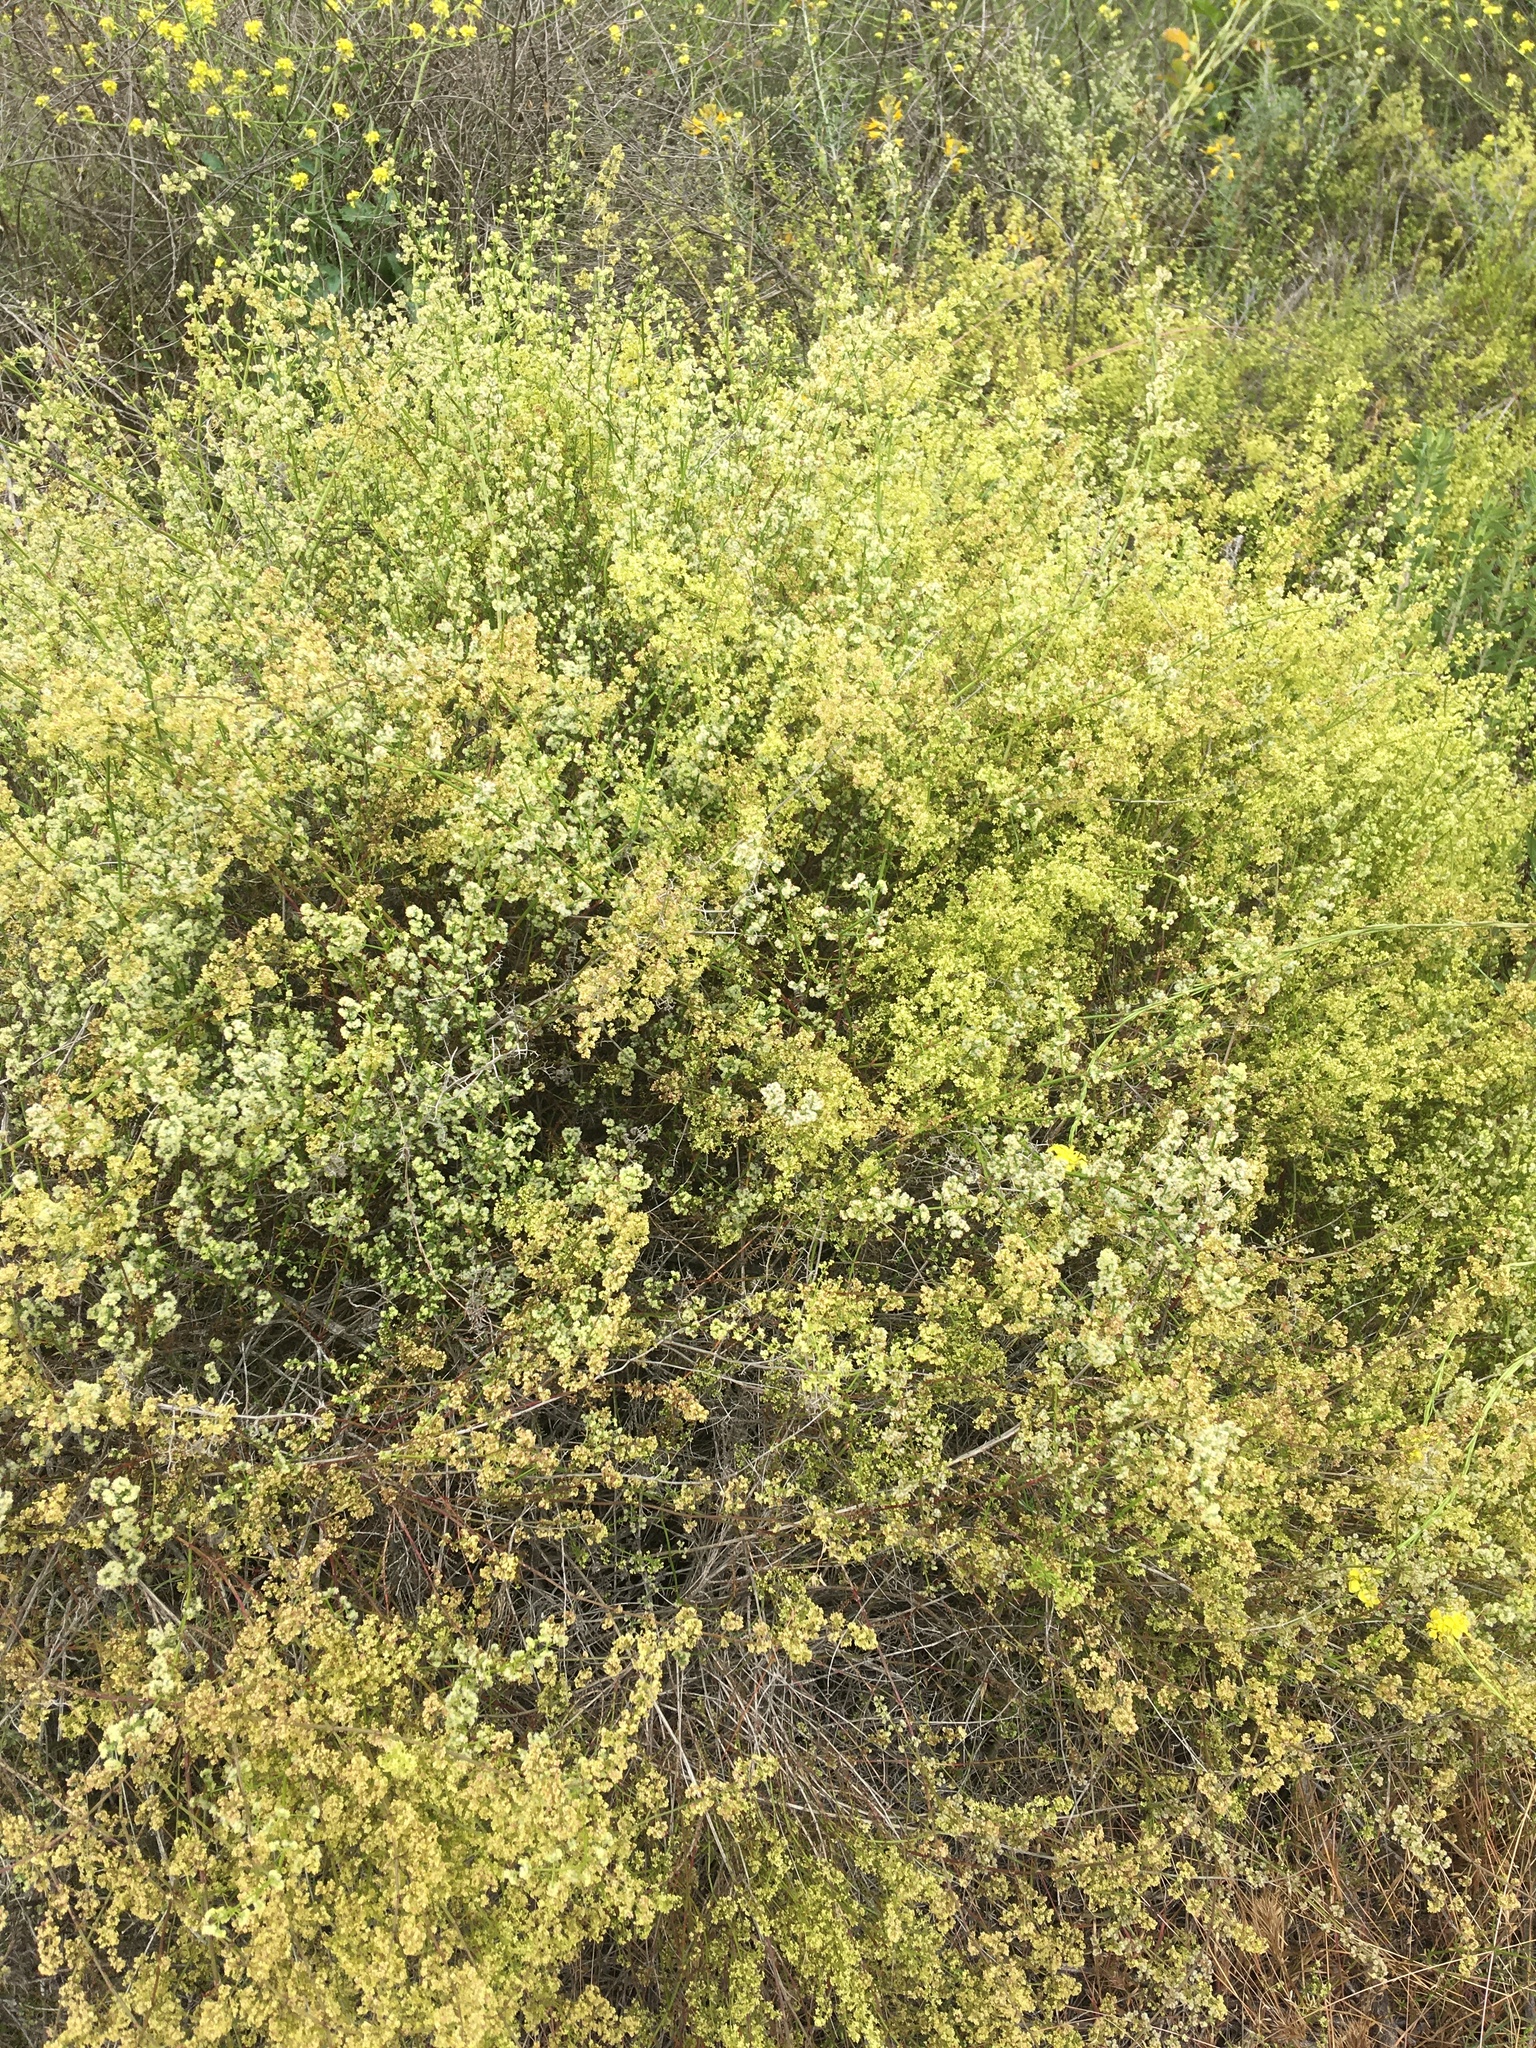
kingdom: Plantae
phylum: Tracheophyta
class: Magnoliopsida
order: Gentianales
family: Rubiaceae
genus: Galium
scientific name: Galium angustifolium
